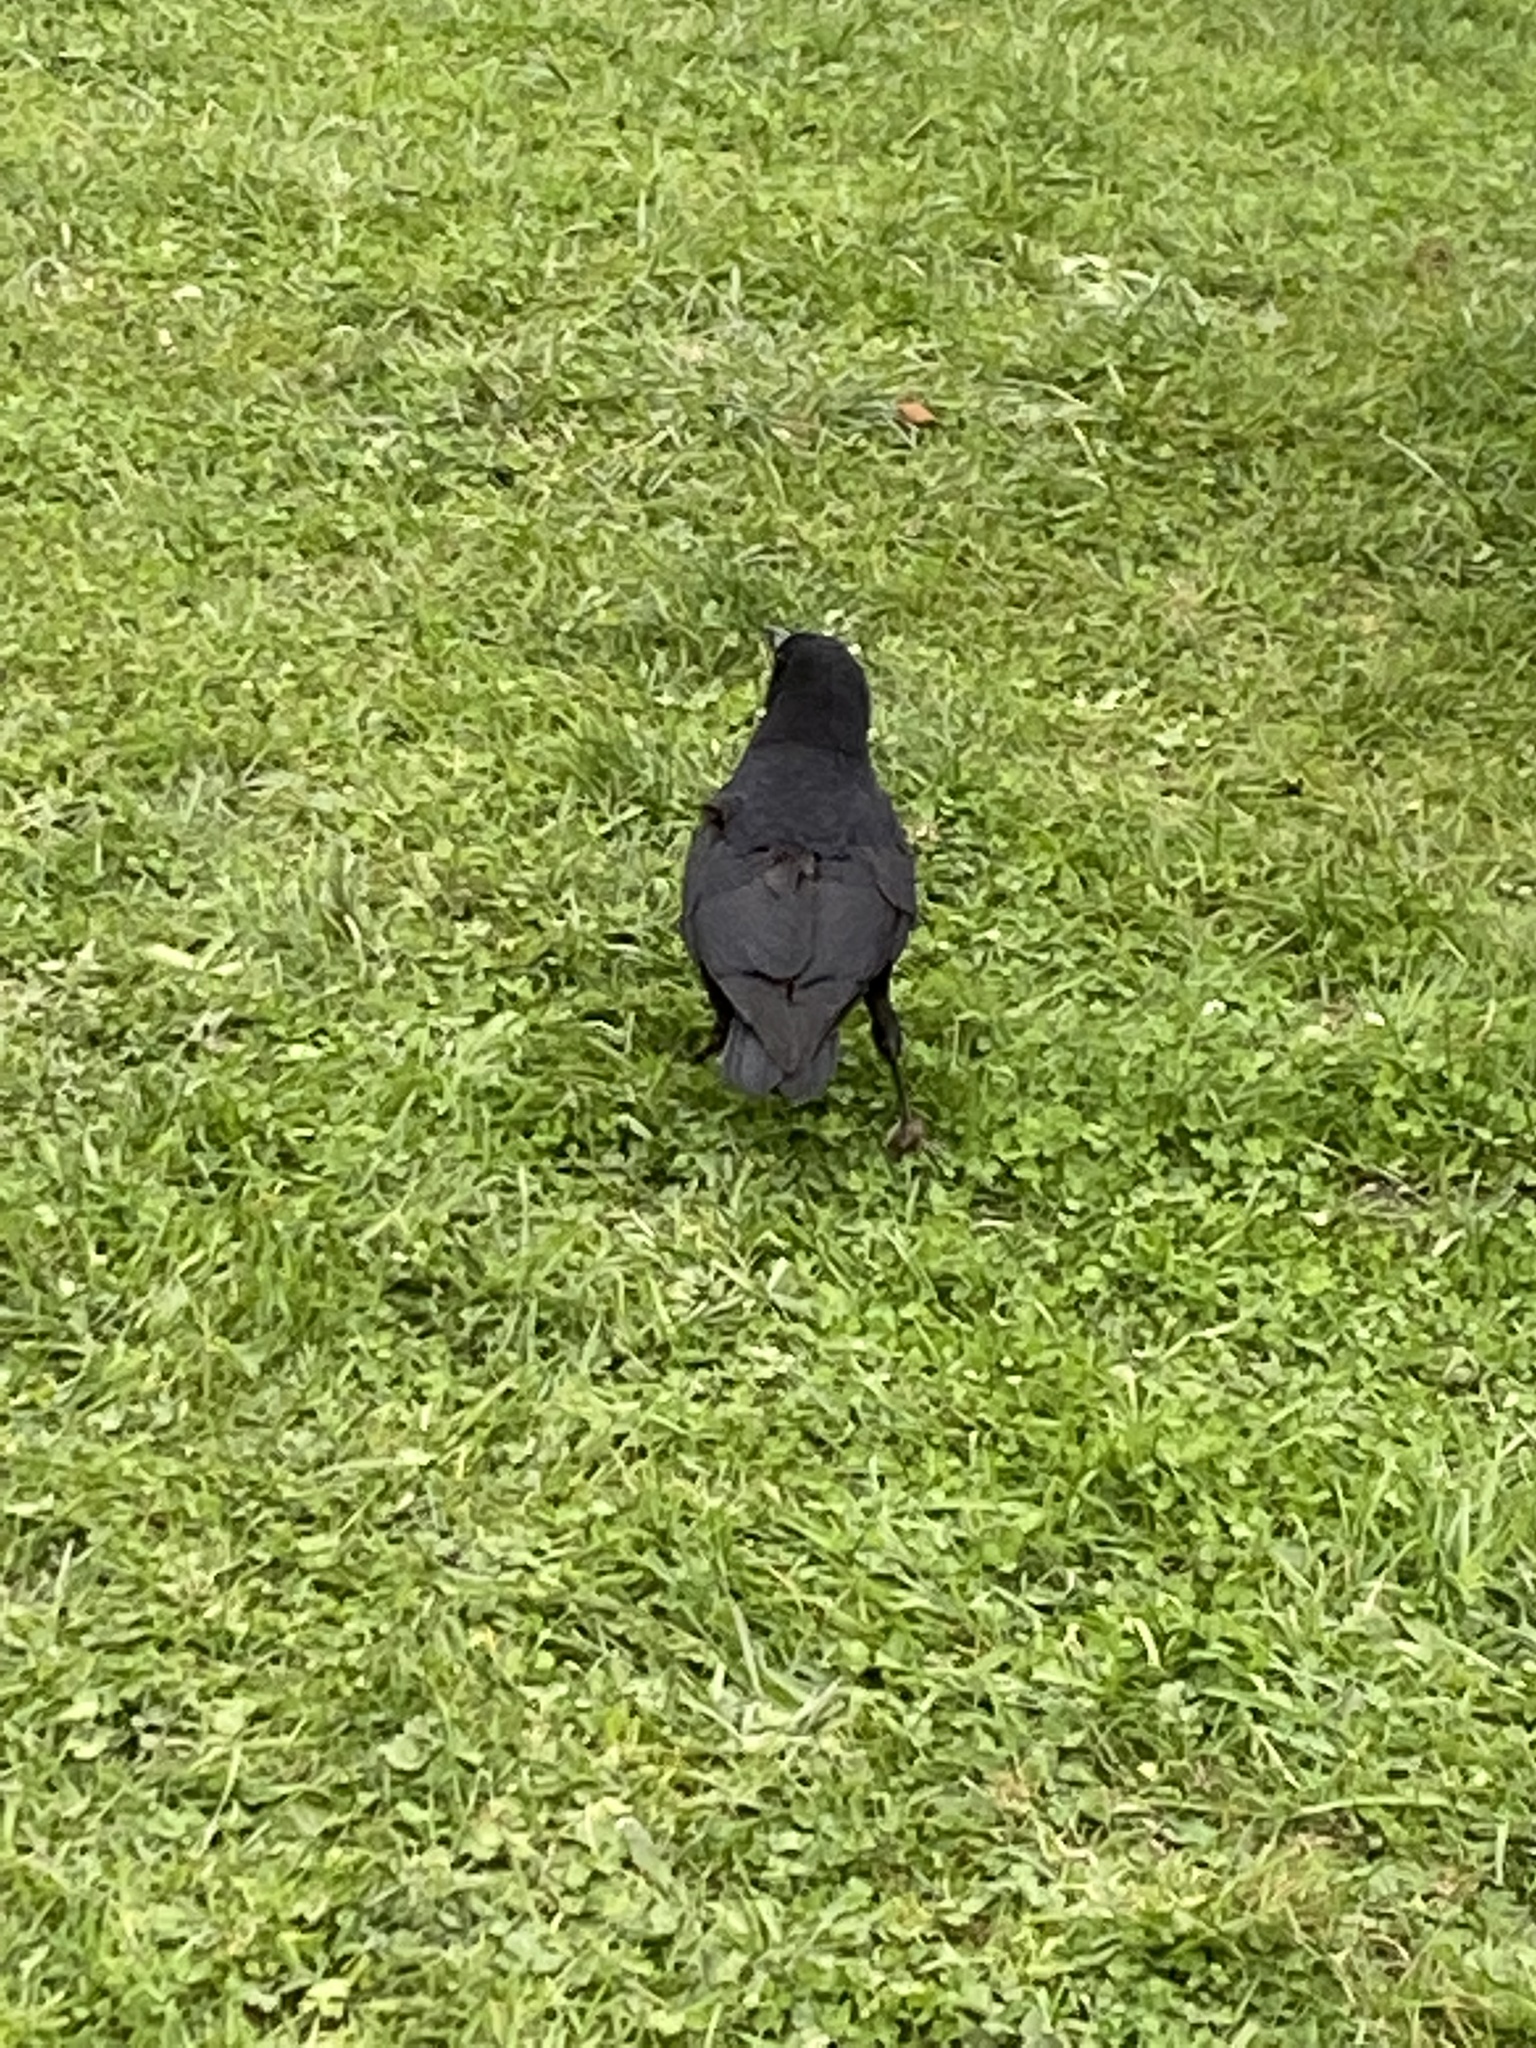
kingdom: Animalia
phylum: Chordata
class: Aves
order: Passeriformes
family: Corvidae
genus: Corvus
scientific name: Corvus brachyrhynchos
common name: American crow
